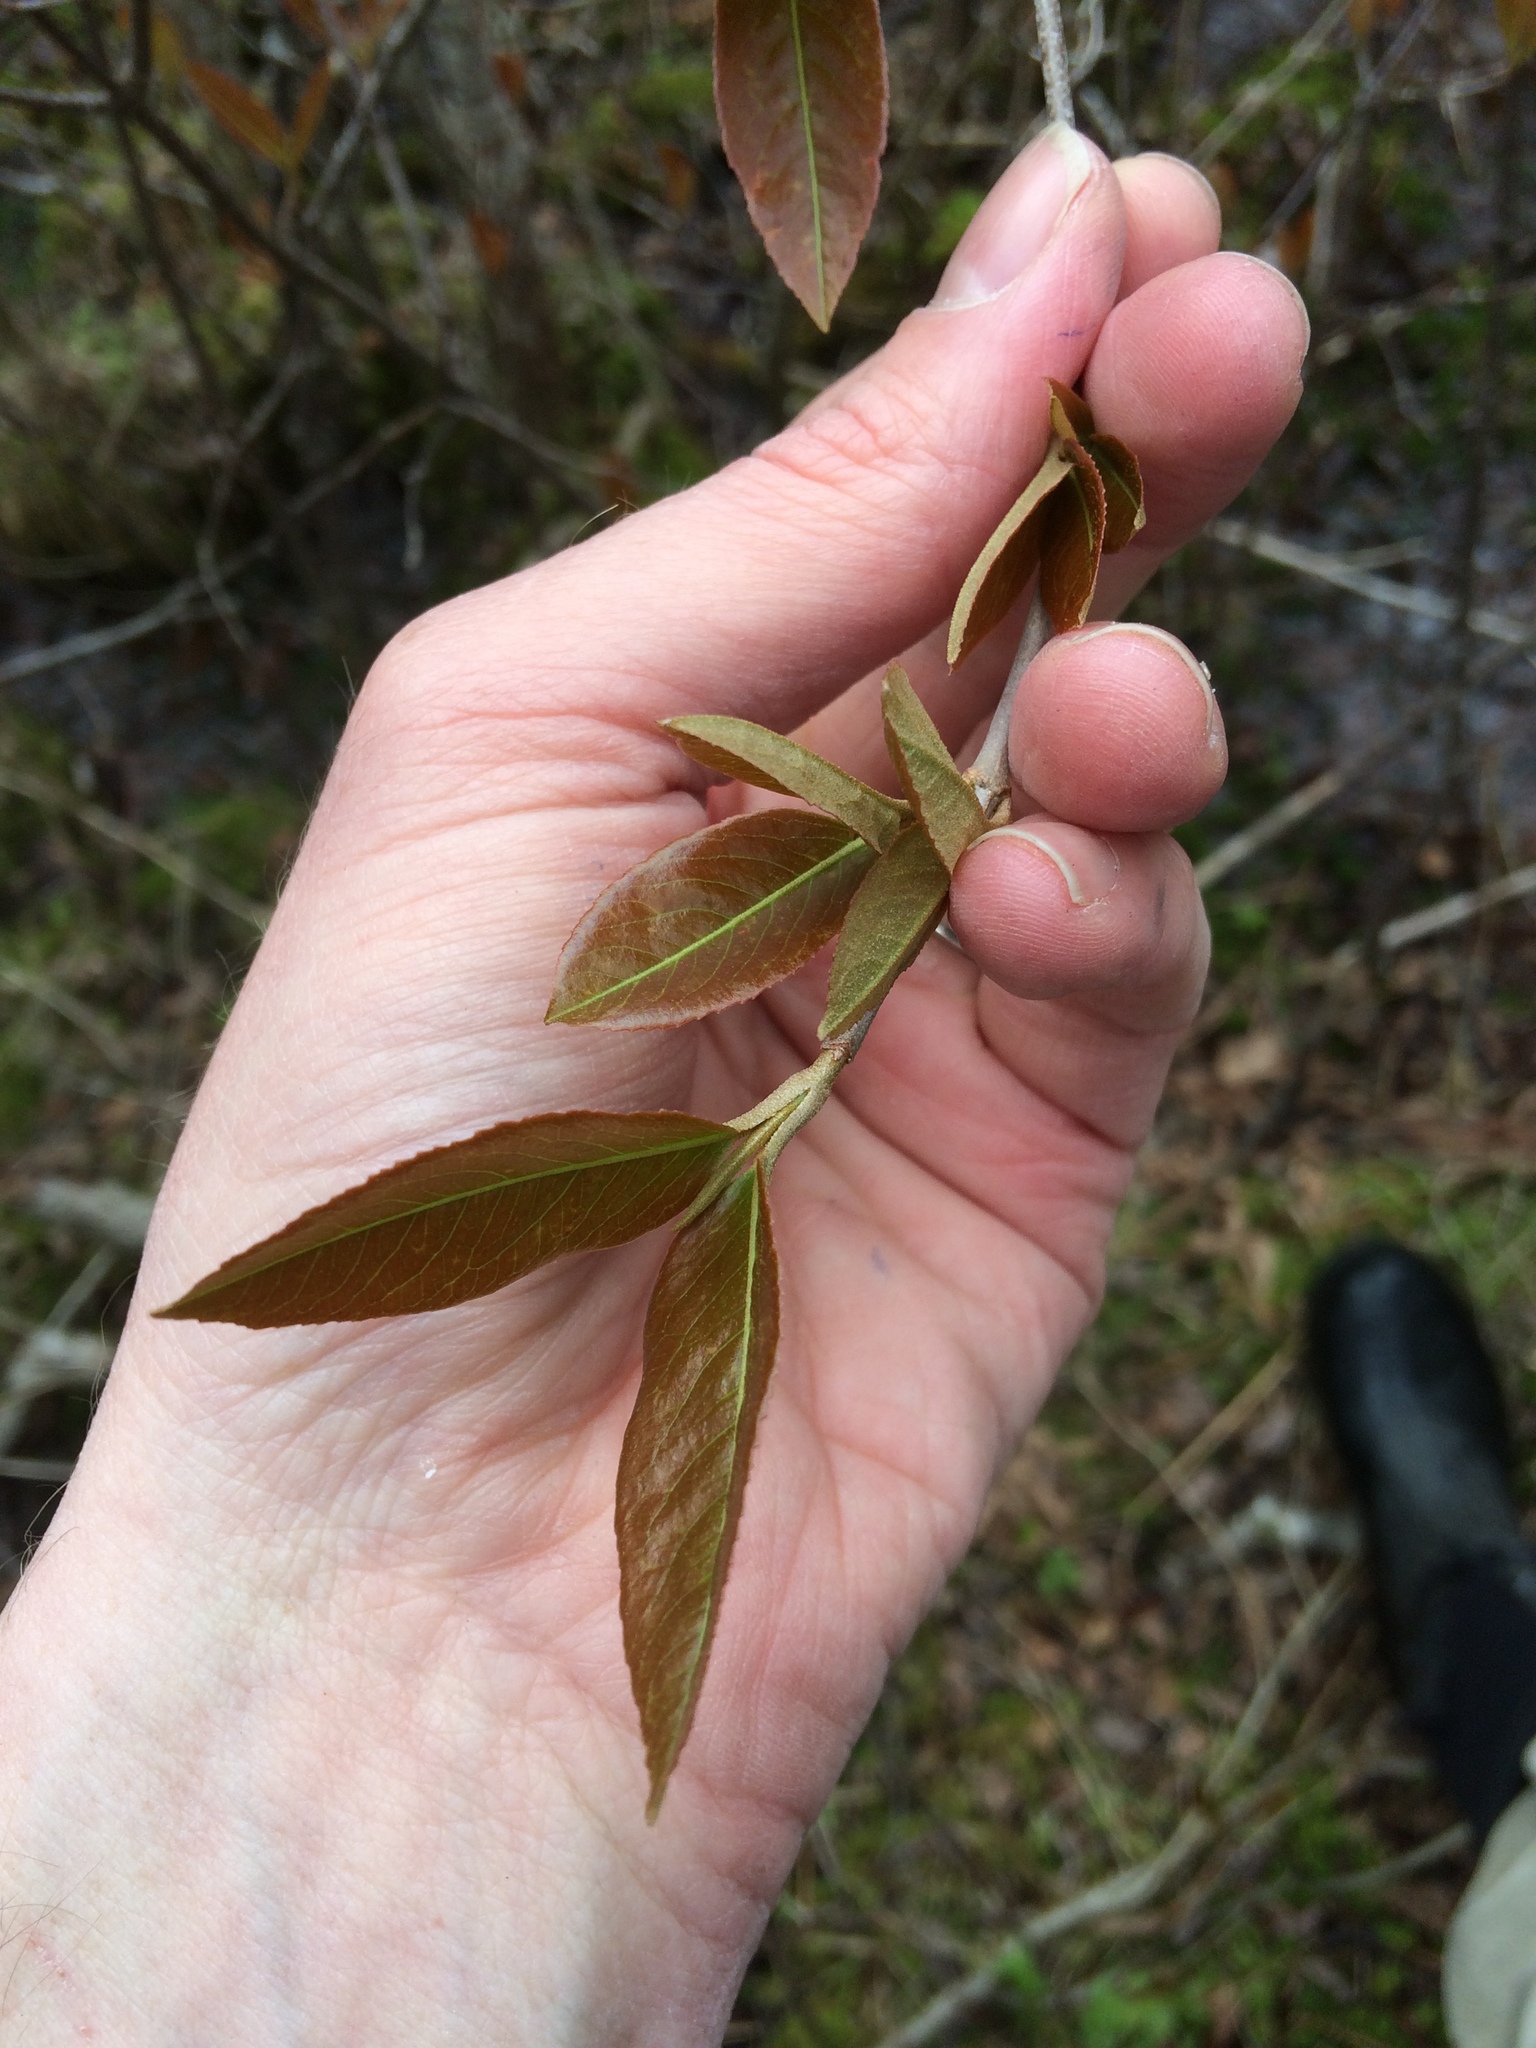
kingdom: Plantae
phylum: Tracheophyta
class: Magnoliopsida
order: Dipsacales
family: Viburnaceae
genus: Viburnum
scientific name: Viburnum cassinoides
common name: Swamp haw
